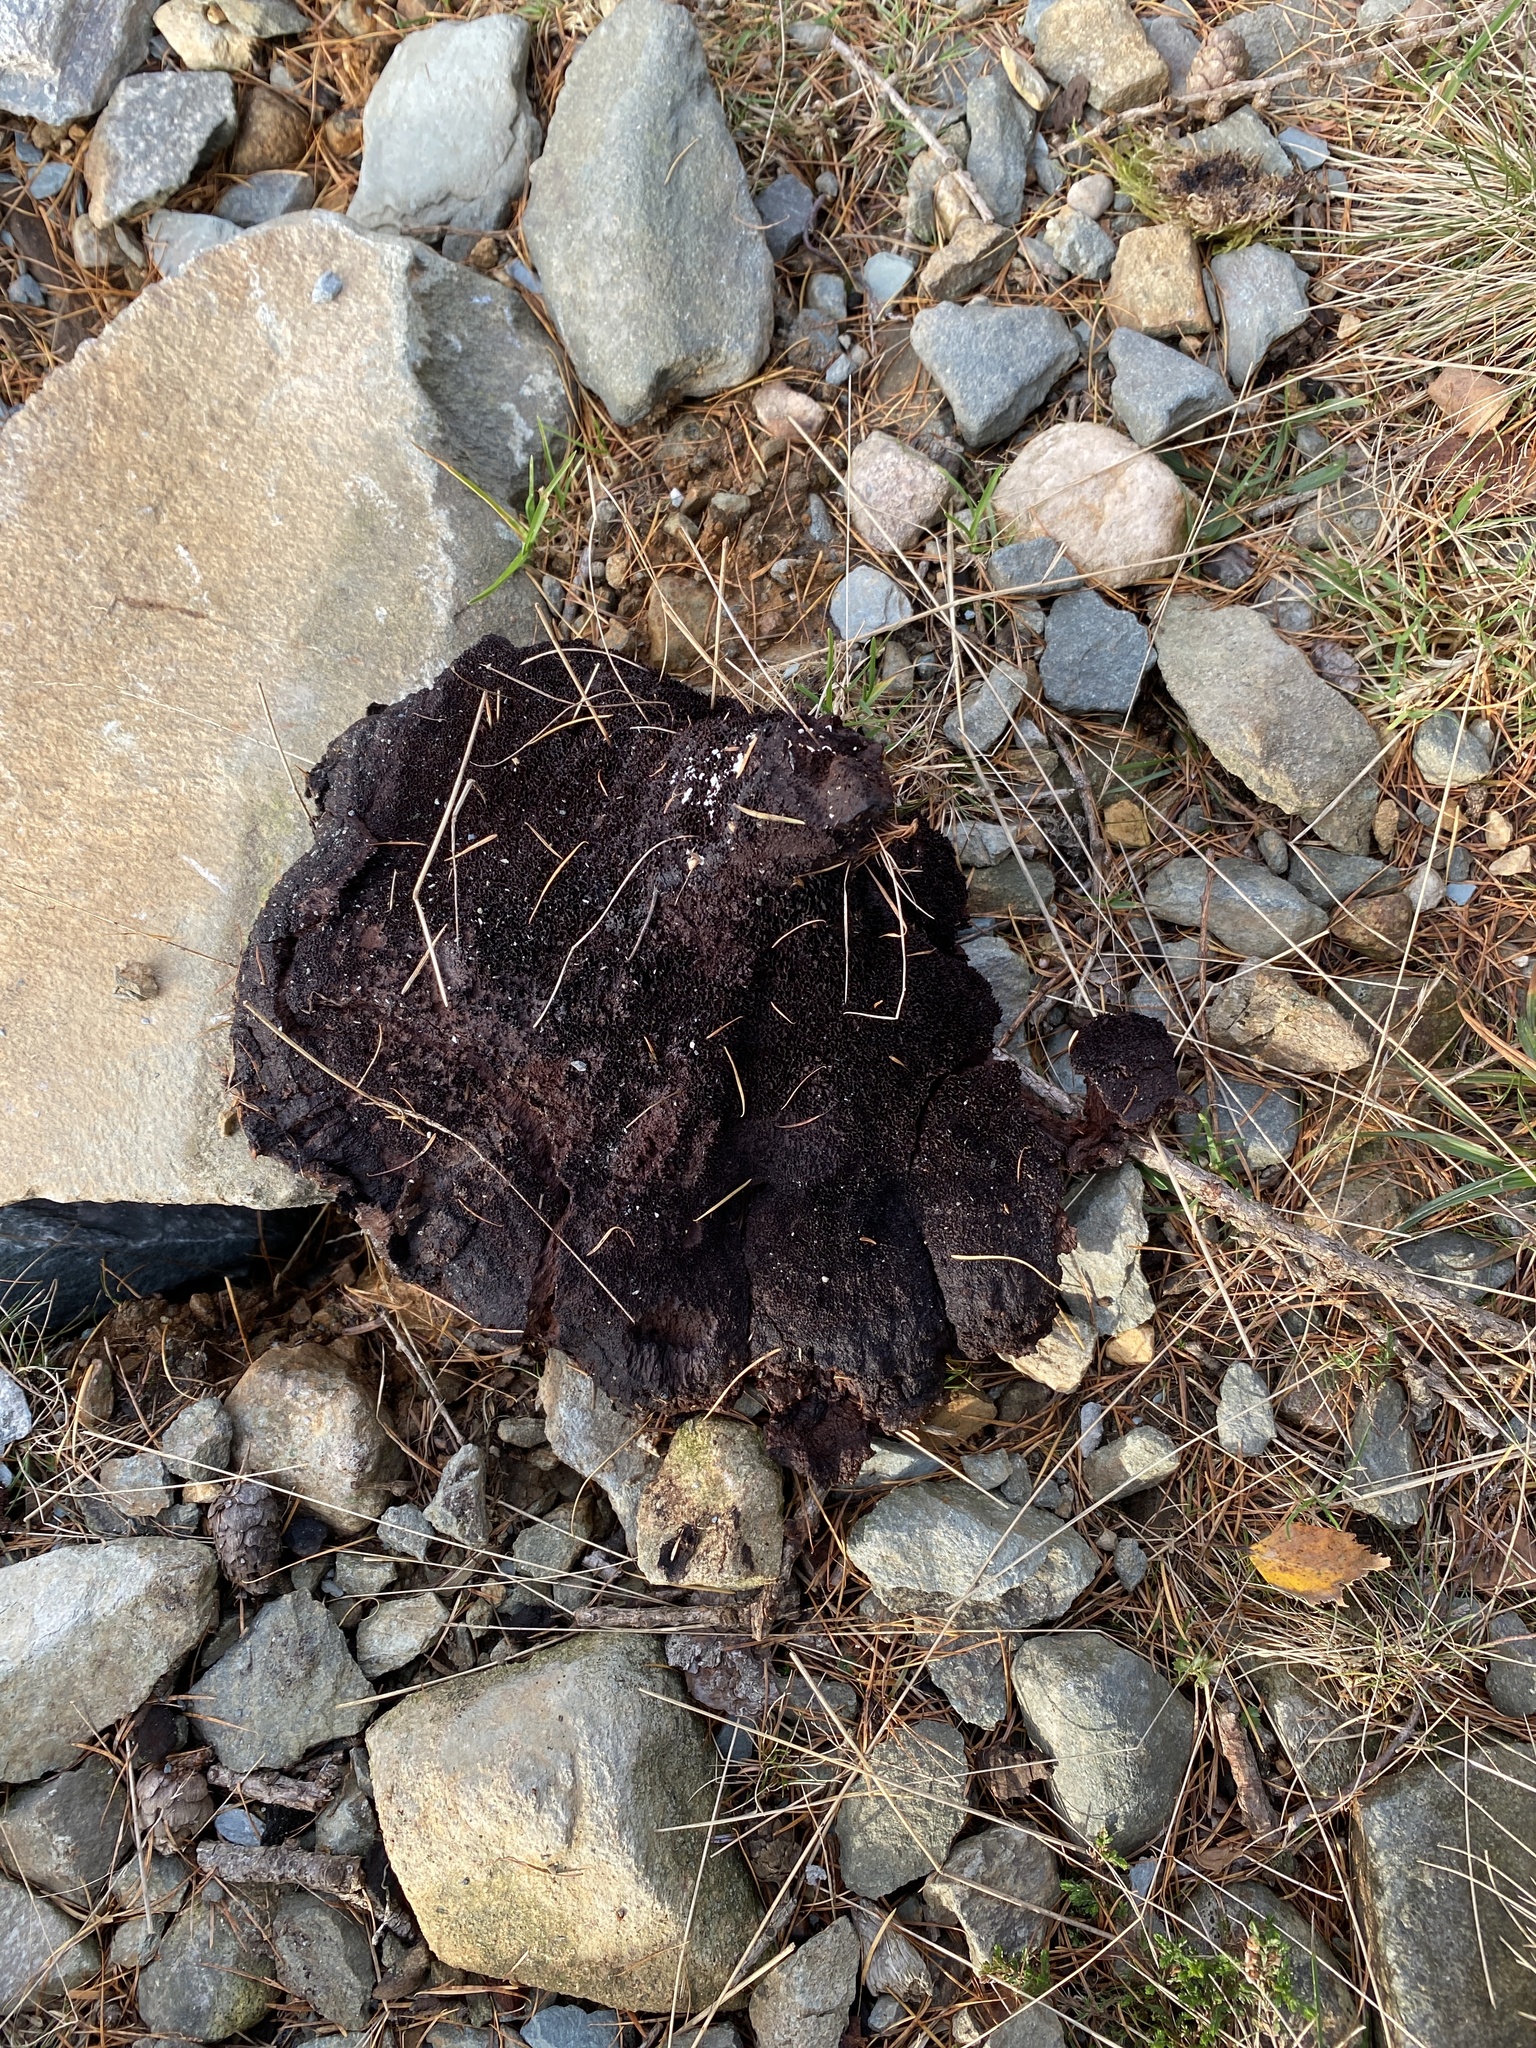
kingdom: Fungi
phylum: Basidiomycota
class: Agaricomycetes
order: Polyporales
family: Laetiporaceae
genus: Phaeolus
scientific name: Phaeolus schweinitzii
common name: Dyer's mazegill
